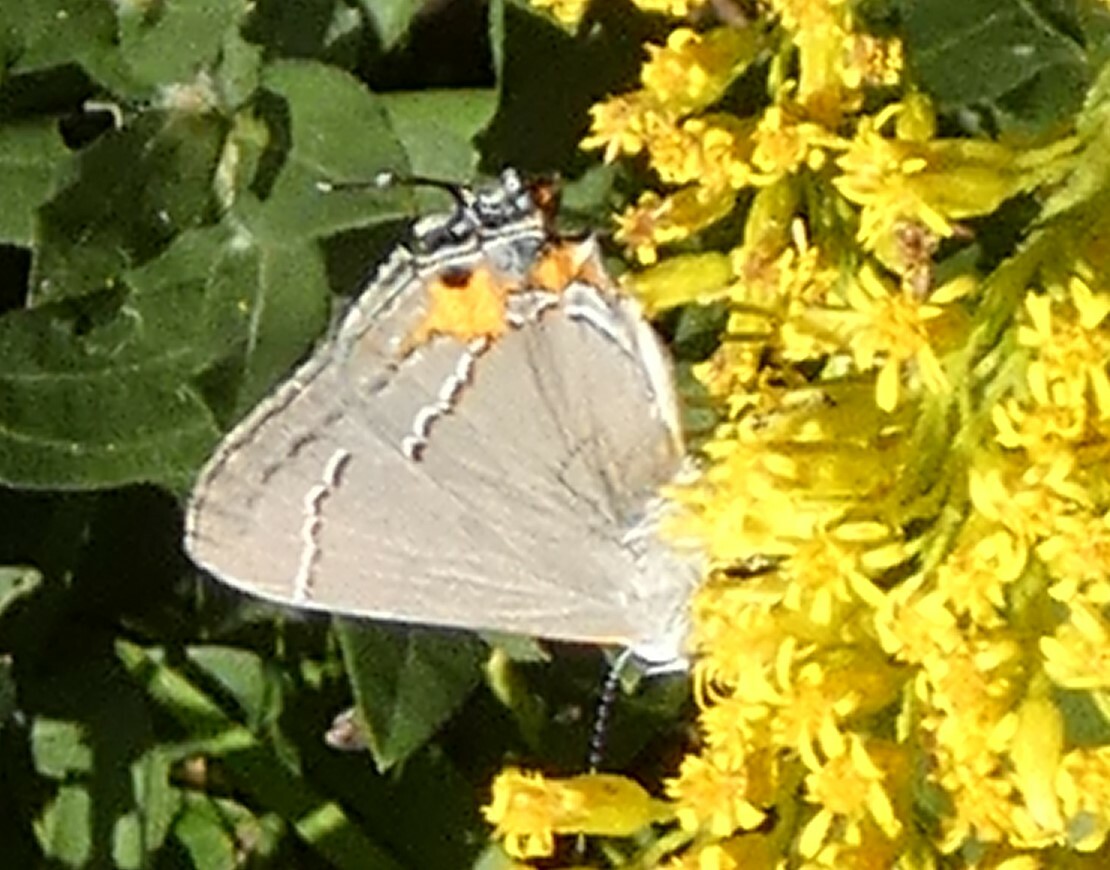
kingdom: Animalia
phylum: Arthropoda
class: Insecta
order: Lepidoptera
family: Lycaenidae
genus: Strymon
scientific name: Strymon melinus
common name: Gray hairstreak
